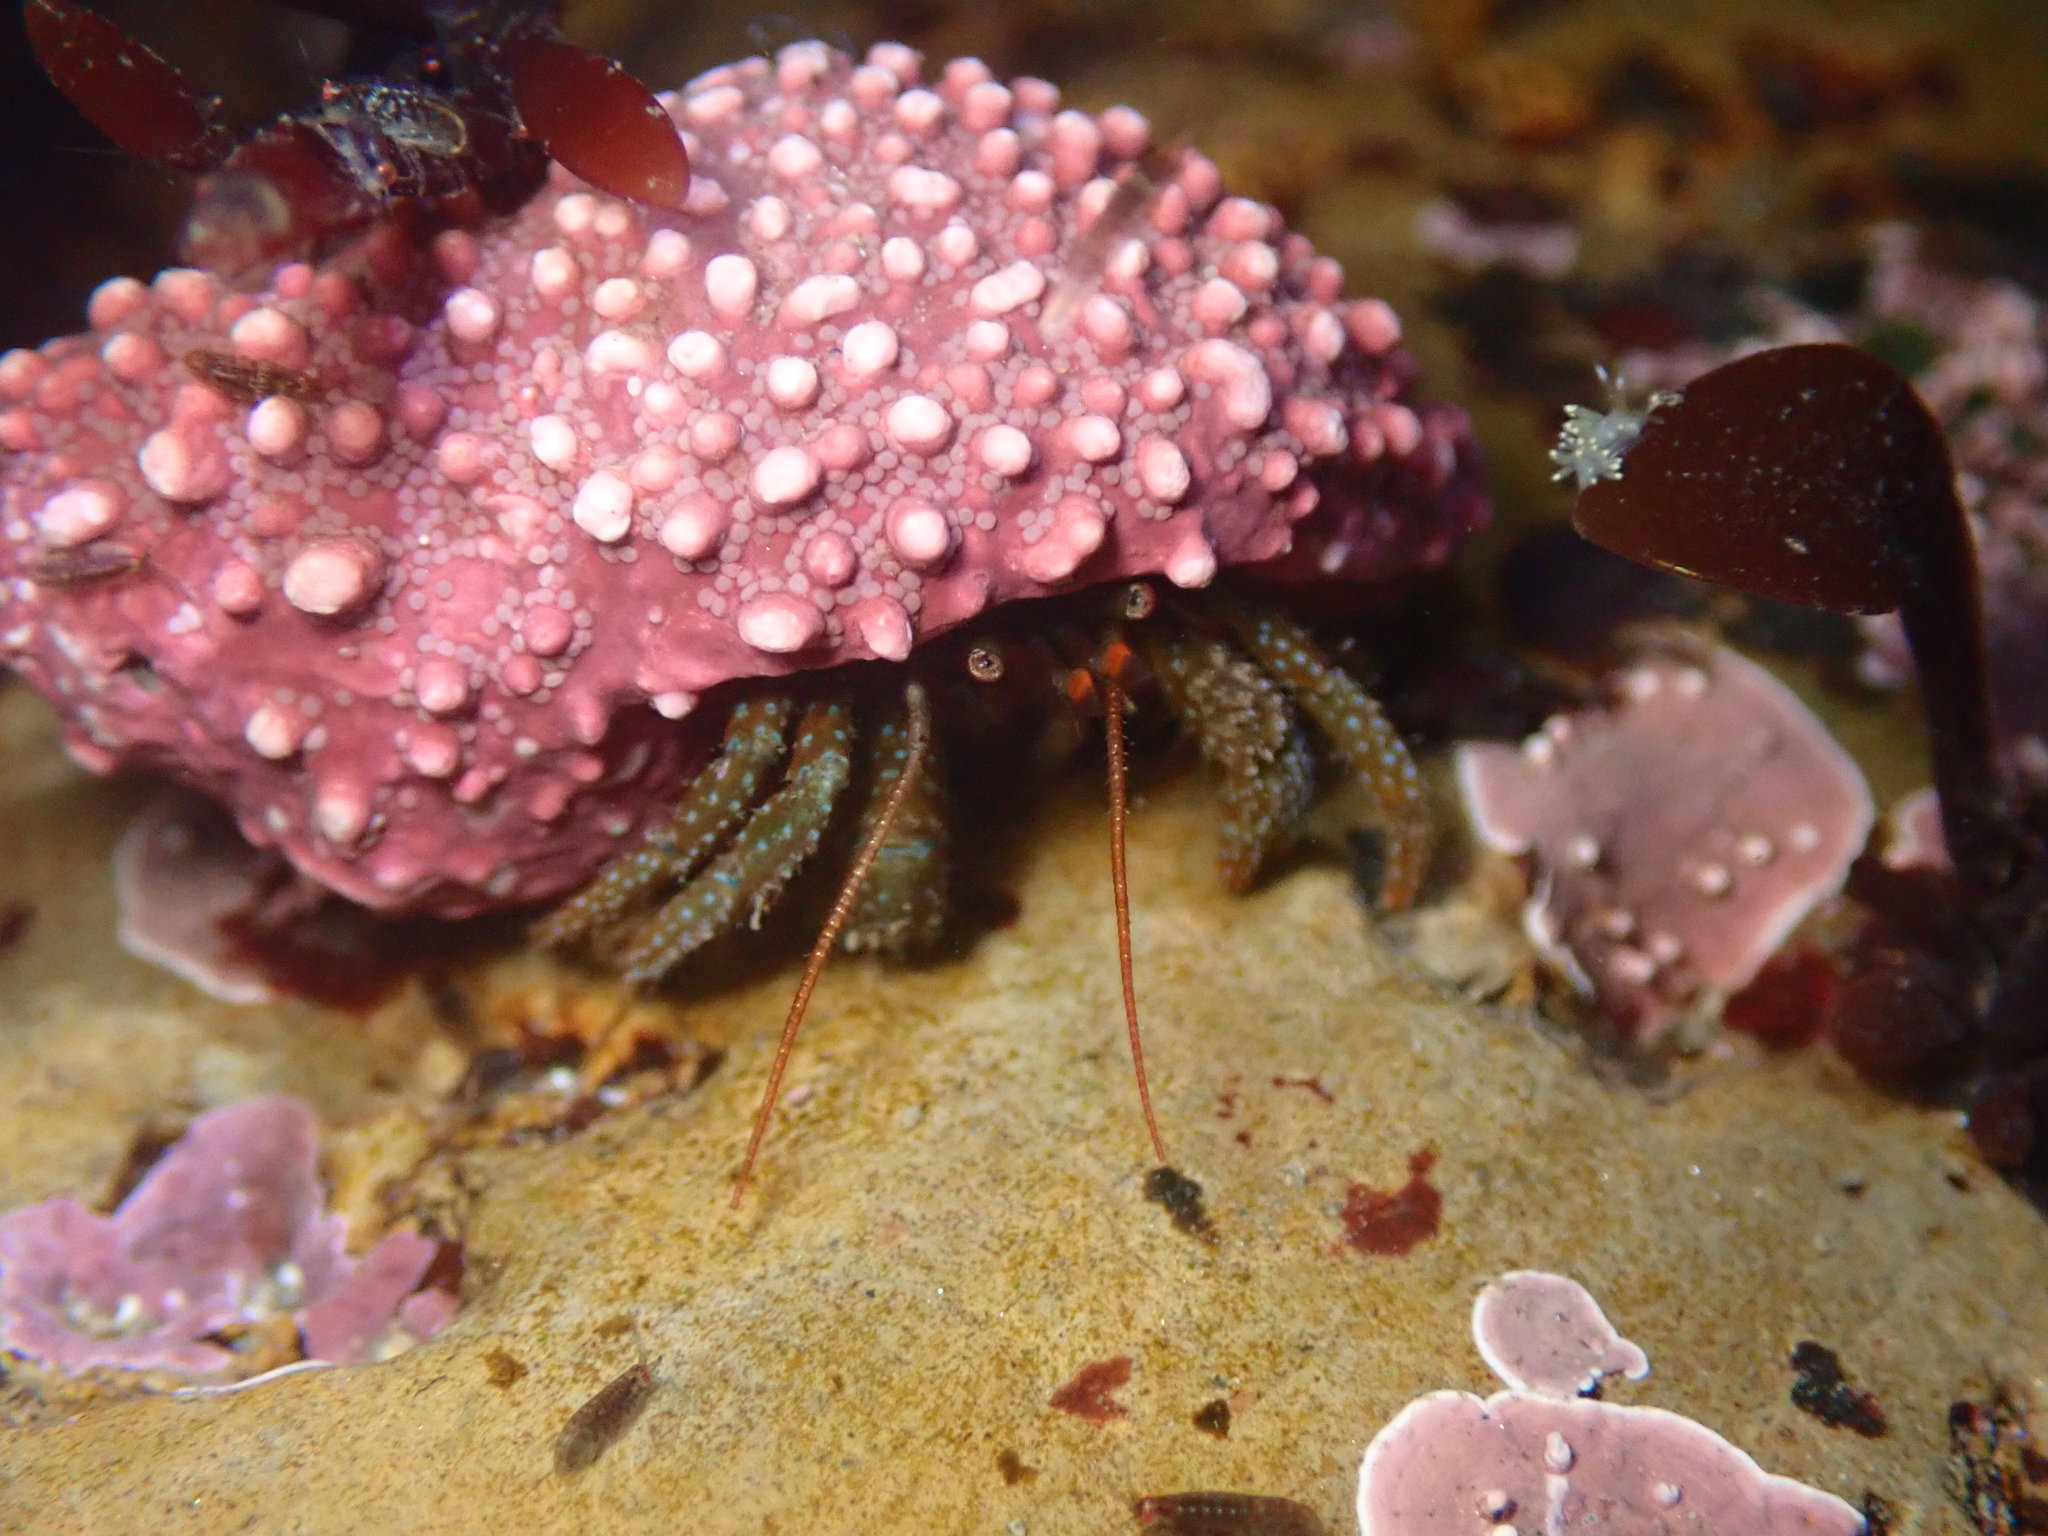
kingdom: Animalia
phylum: Arthropoda
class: Malacostraca
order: Decapoda
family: Paguridae
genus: Pagurus
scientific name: Pagurus granosimanus
